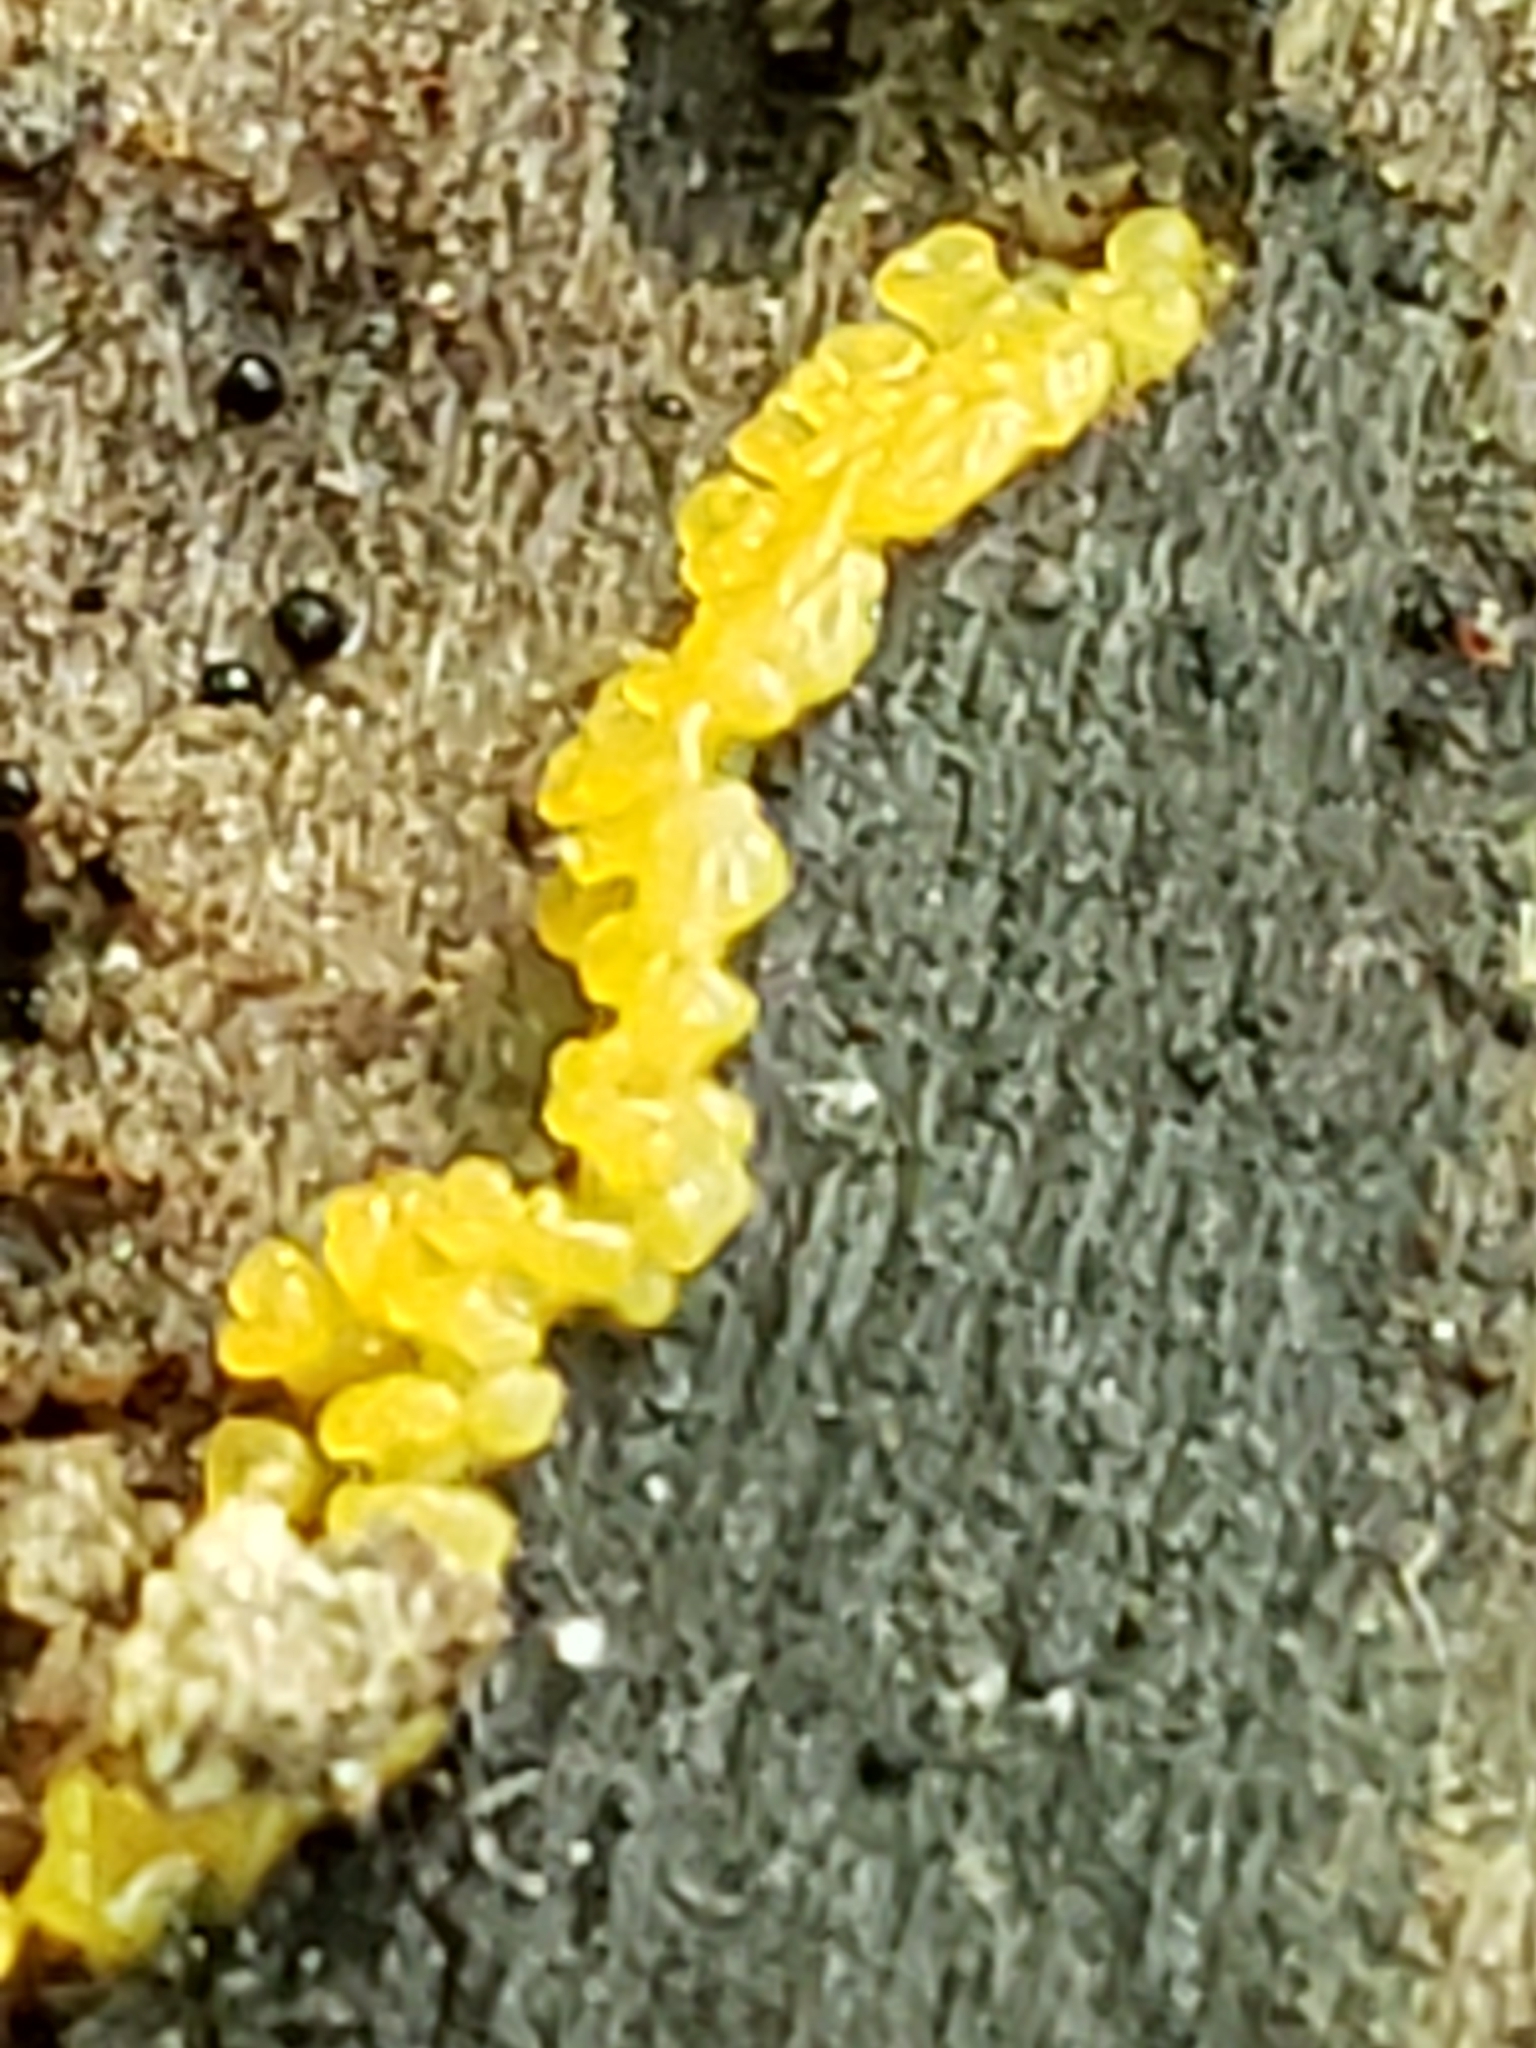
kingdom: Protozoa
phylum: Mycetozoa
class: Protosteliomycetes
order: Ceratiomyxales
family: Ceratiomyxaceae
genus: Ceratiomyxa
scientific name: Ceratiomyxa fruticulosa
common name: Honeycomb coral slime mold
